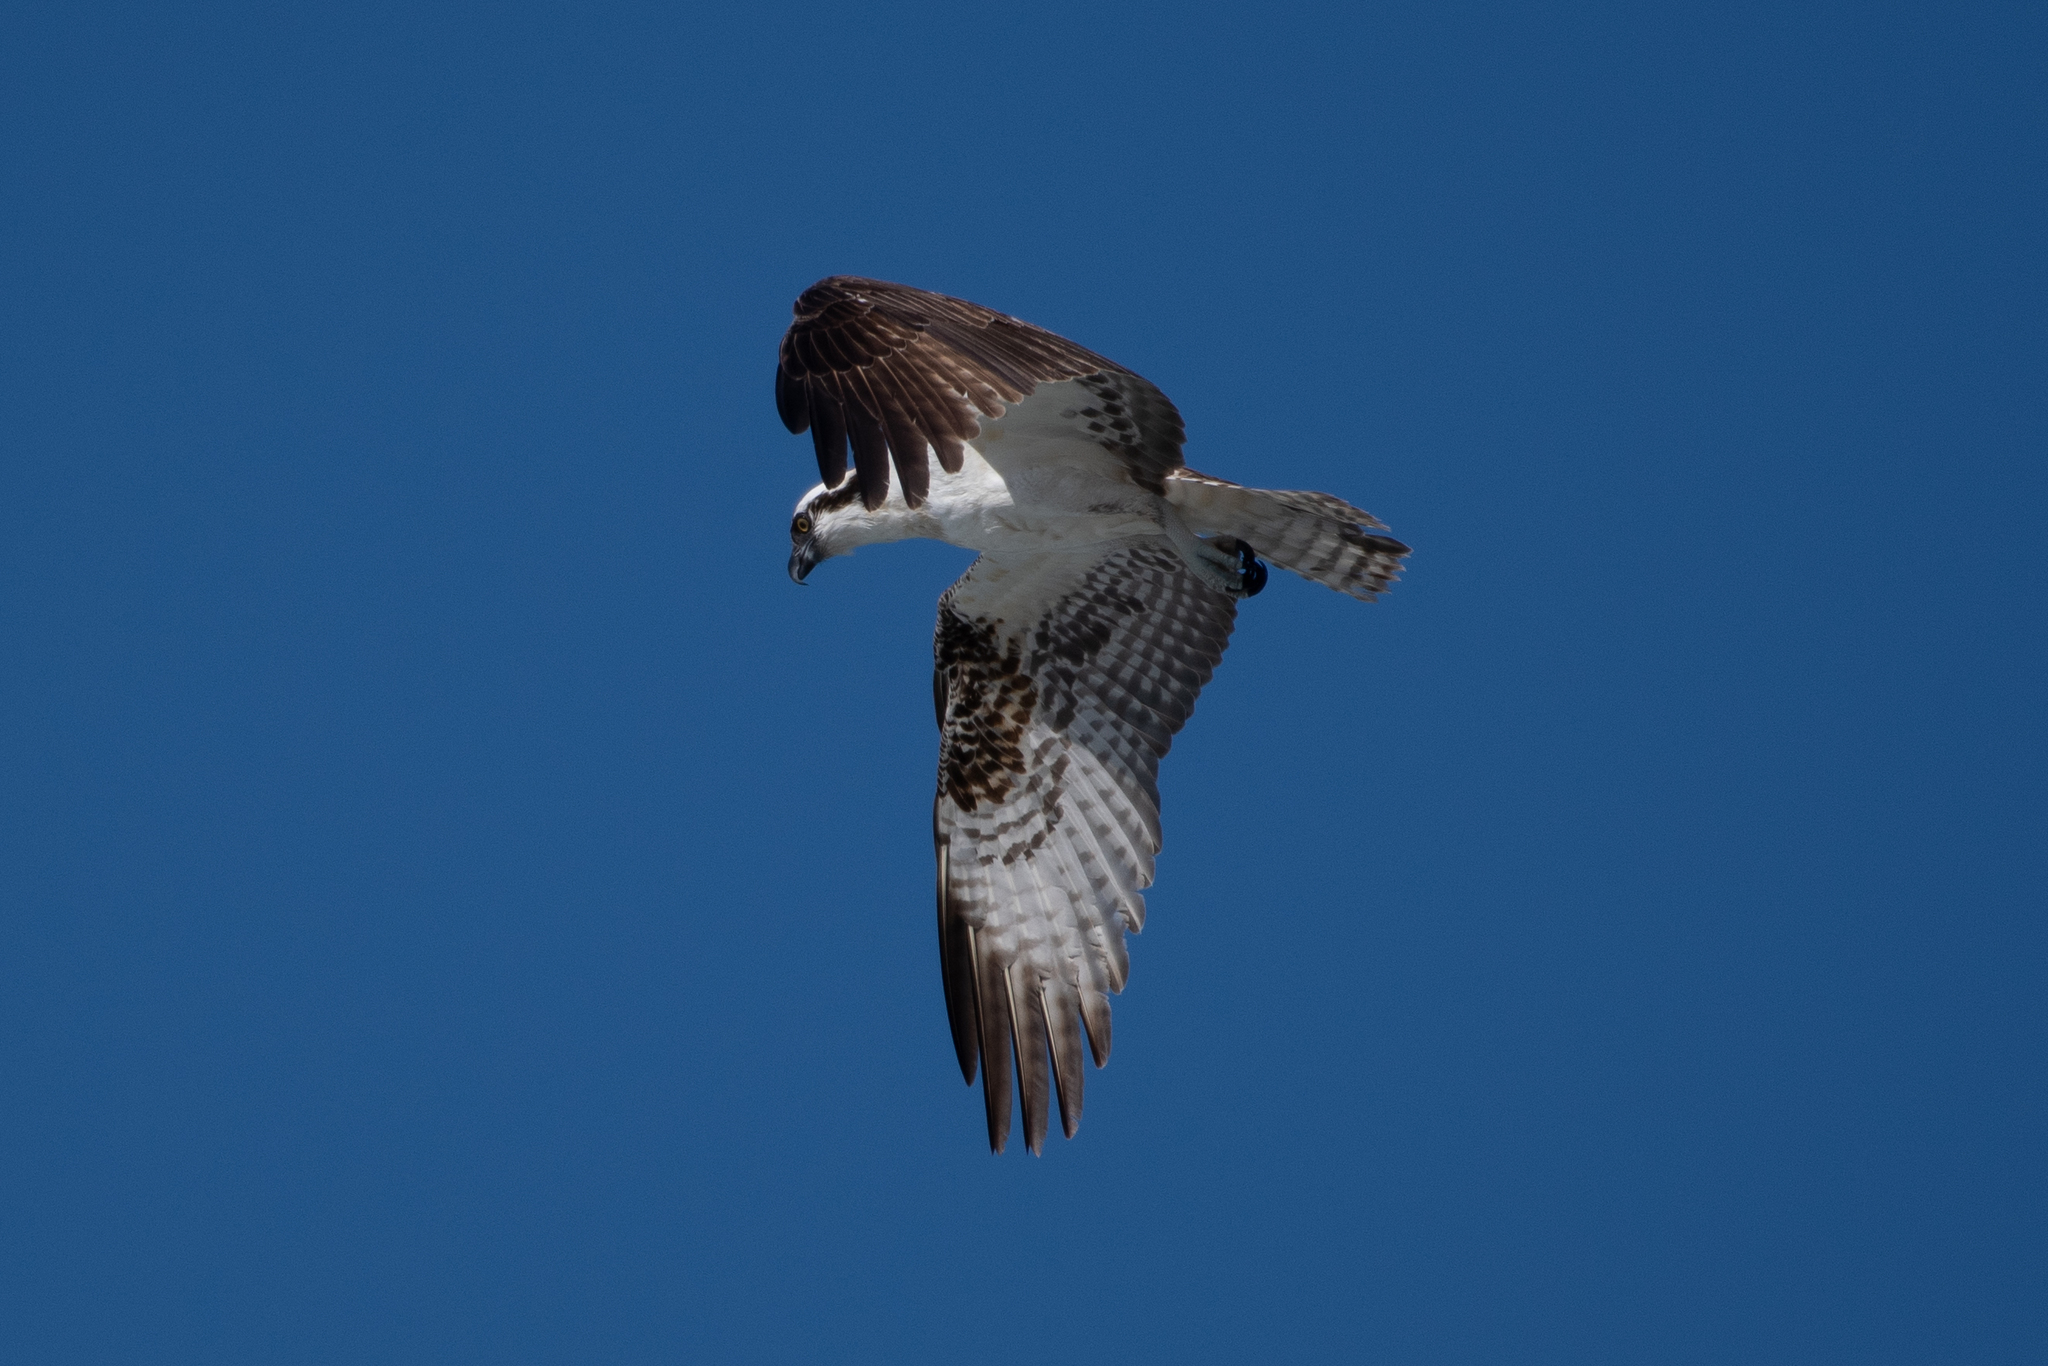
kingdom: Animalia
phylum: Chordata
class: Aves
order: Accipitriformes
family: Pandionidae
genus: Pandion
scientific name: Pandion haliaetus
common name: Osprey
